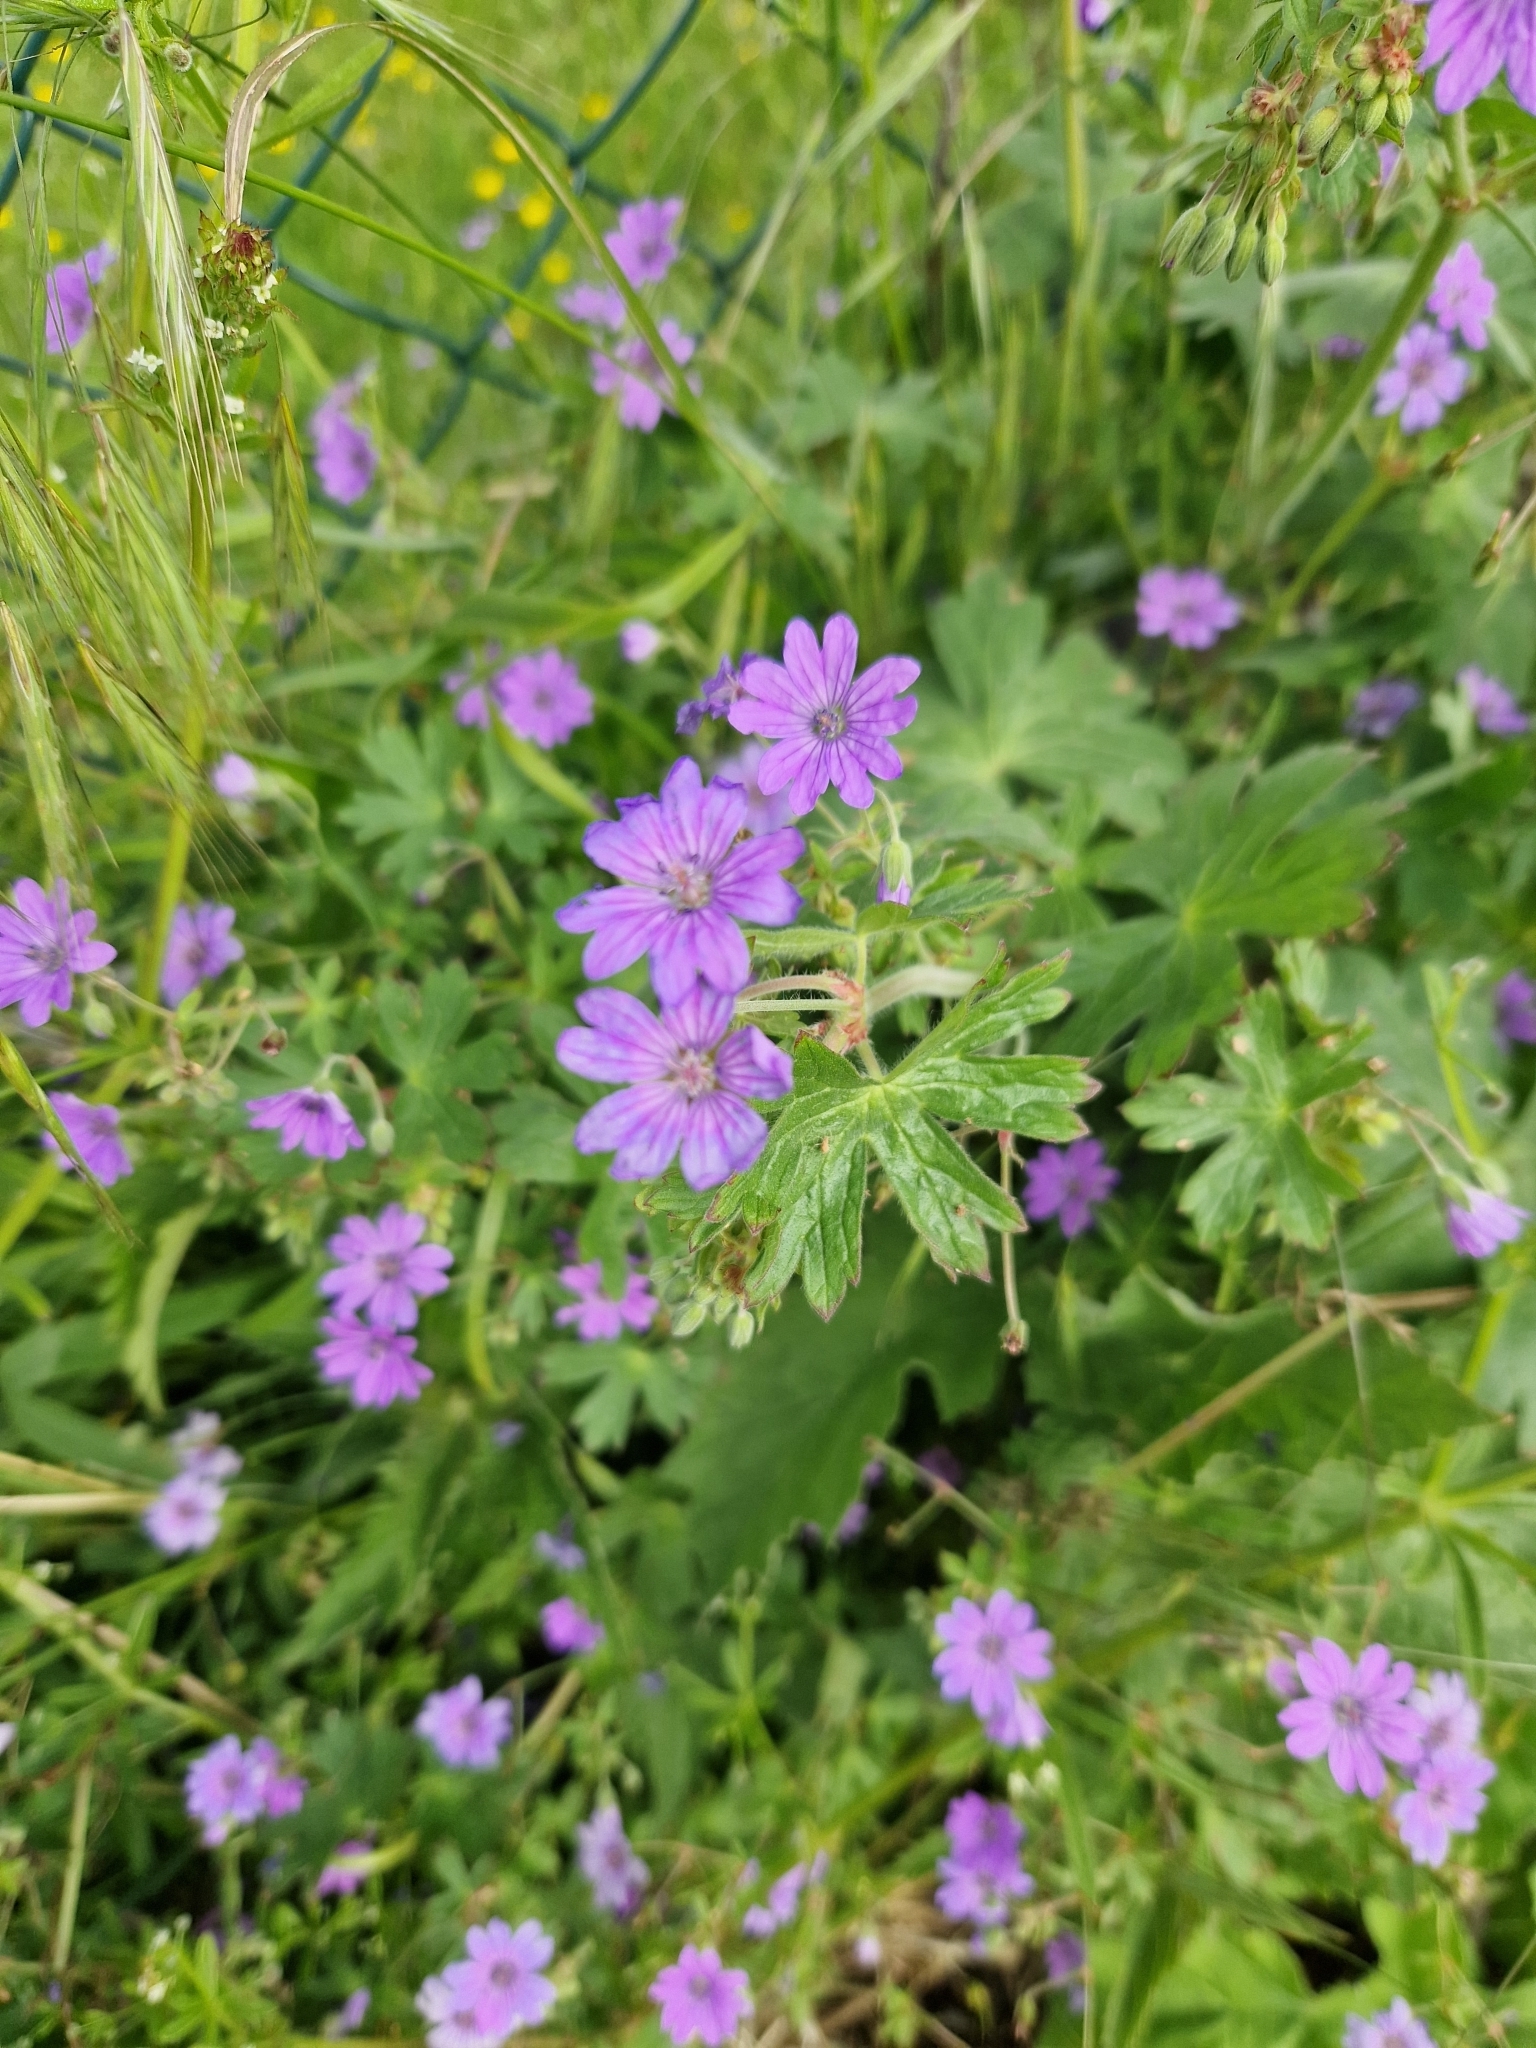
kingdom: Plantae
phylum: Tracheophyta
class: Magnoliopsida
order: Geraniales
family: Geraniaceae
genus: Geranium
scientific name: Geranium pyrenaicum
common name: Hedgerow crane's-bill
